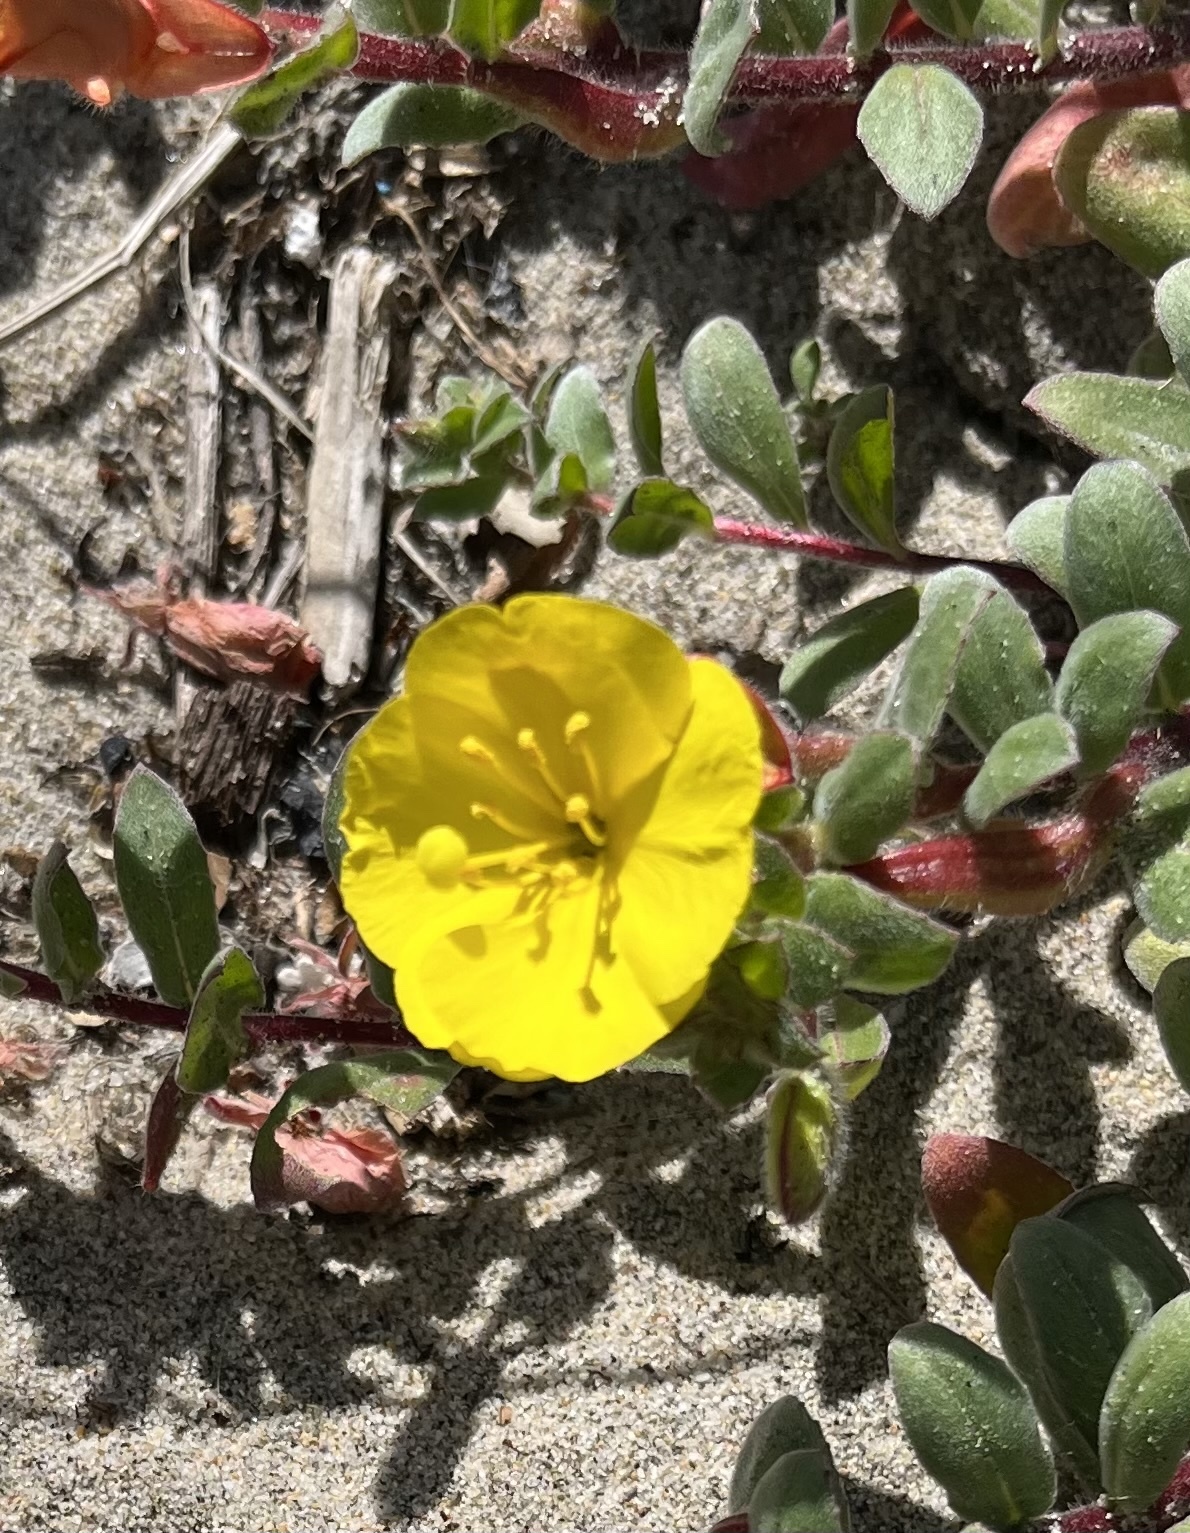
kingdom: Plantae
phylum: Tracheophyta
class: Magnoliopsida
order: Myrtales
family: Onagraceae
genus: Camissoniopsis
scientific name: Camissoniopsis cheiranthifolia
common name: Beach suncup
